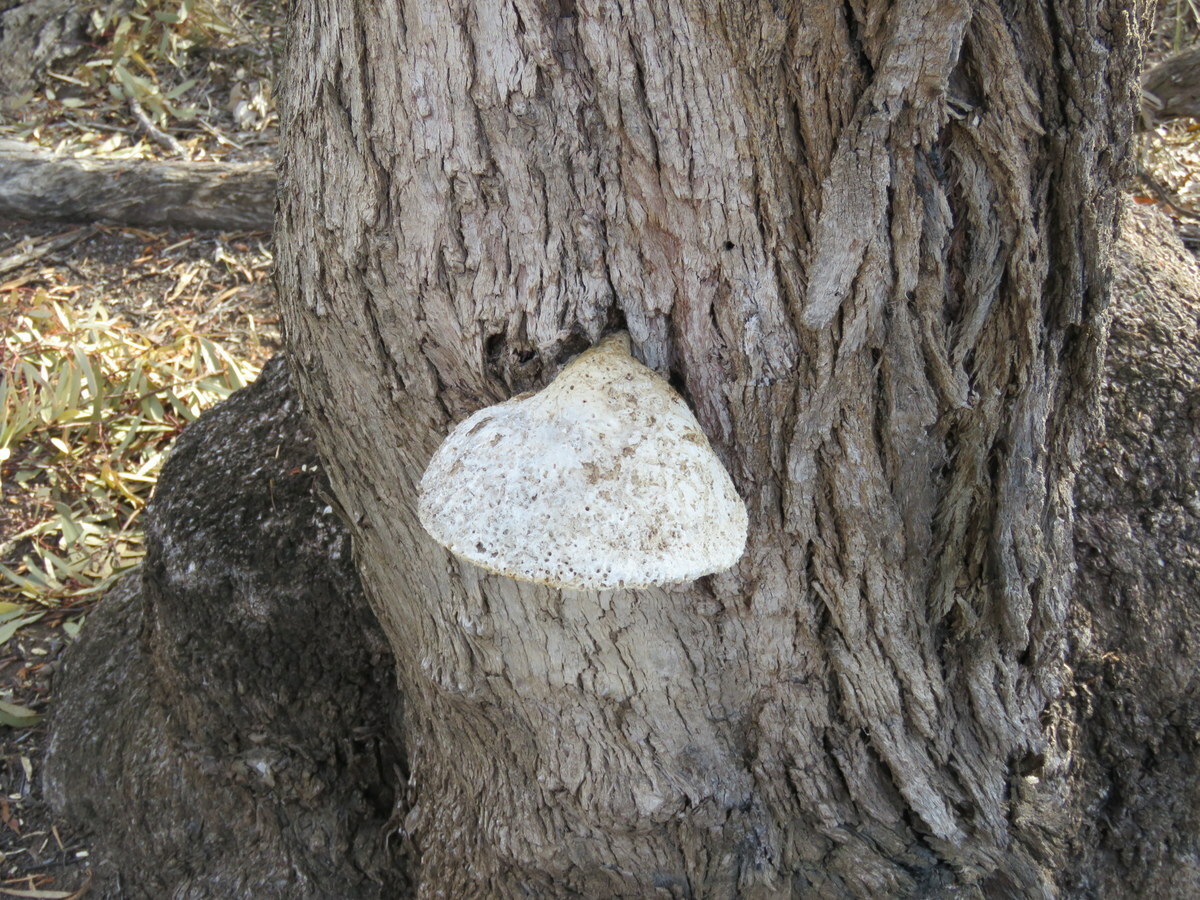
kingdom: Fungi
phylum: Basidiomycota
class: Agaricomycetes
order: Polyporales
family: Laetiporaceae
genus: Laetiporus
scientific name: Laetiporus portentosus
